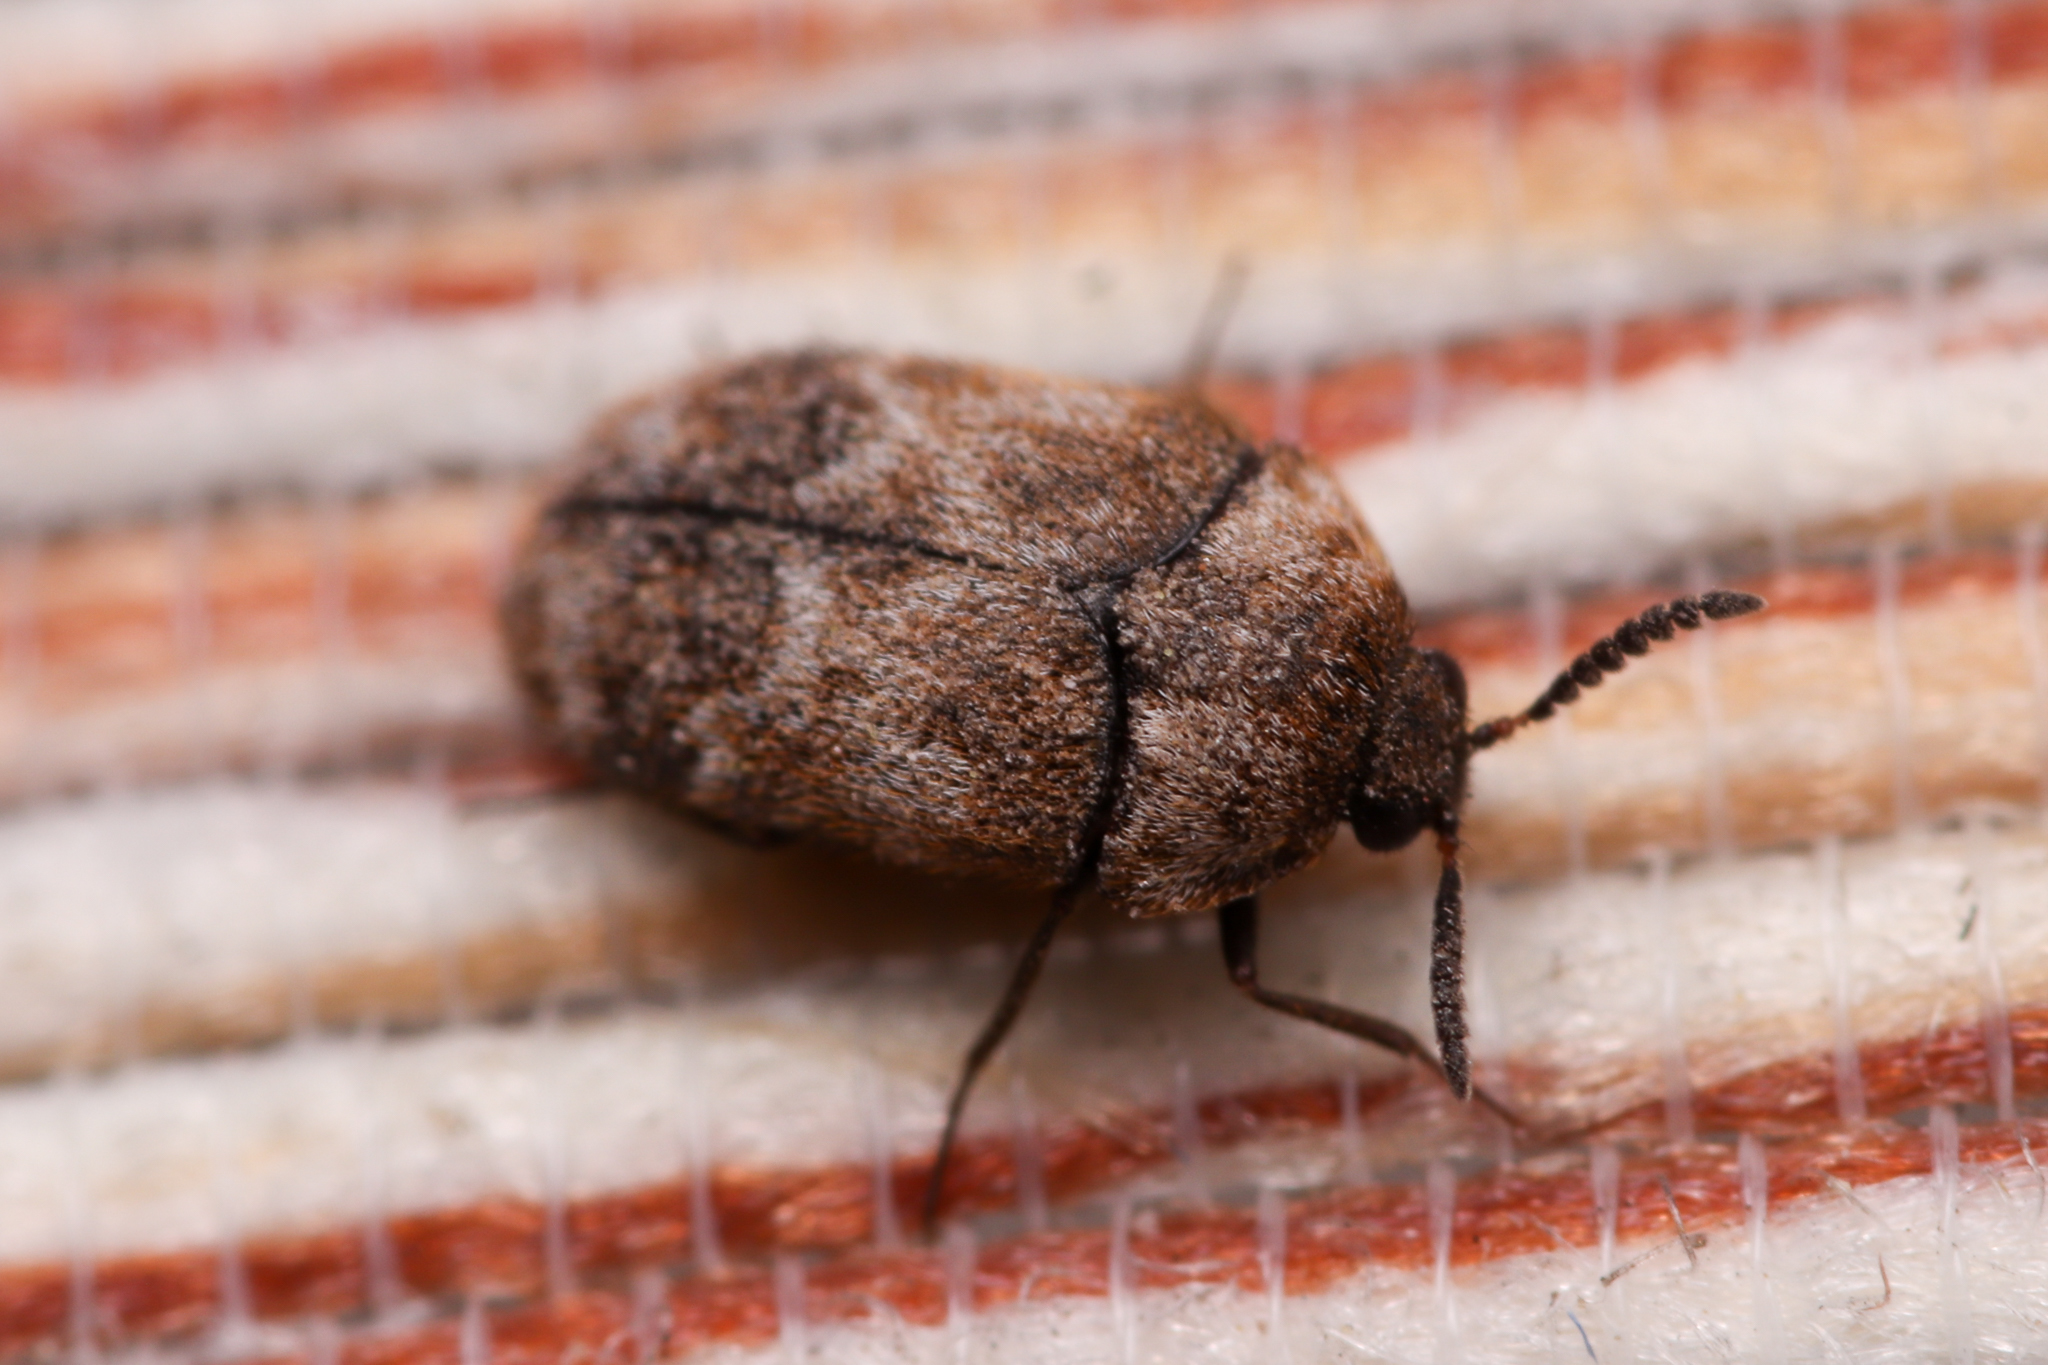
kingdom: Animalia
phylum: Arthropoda
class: Insecta
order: Coleoptera
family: Dermestidae
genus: Trogoderma
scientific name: Trogoderma sternale
